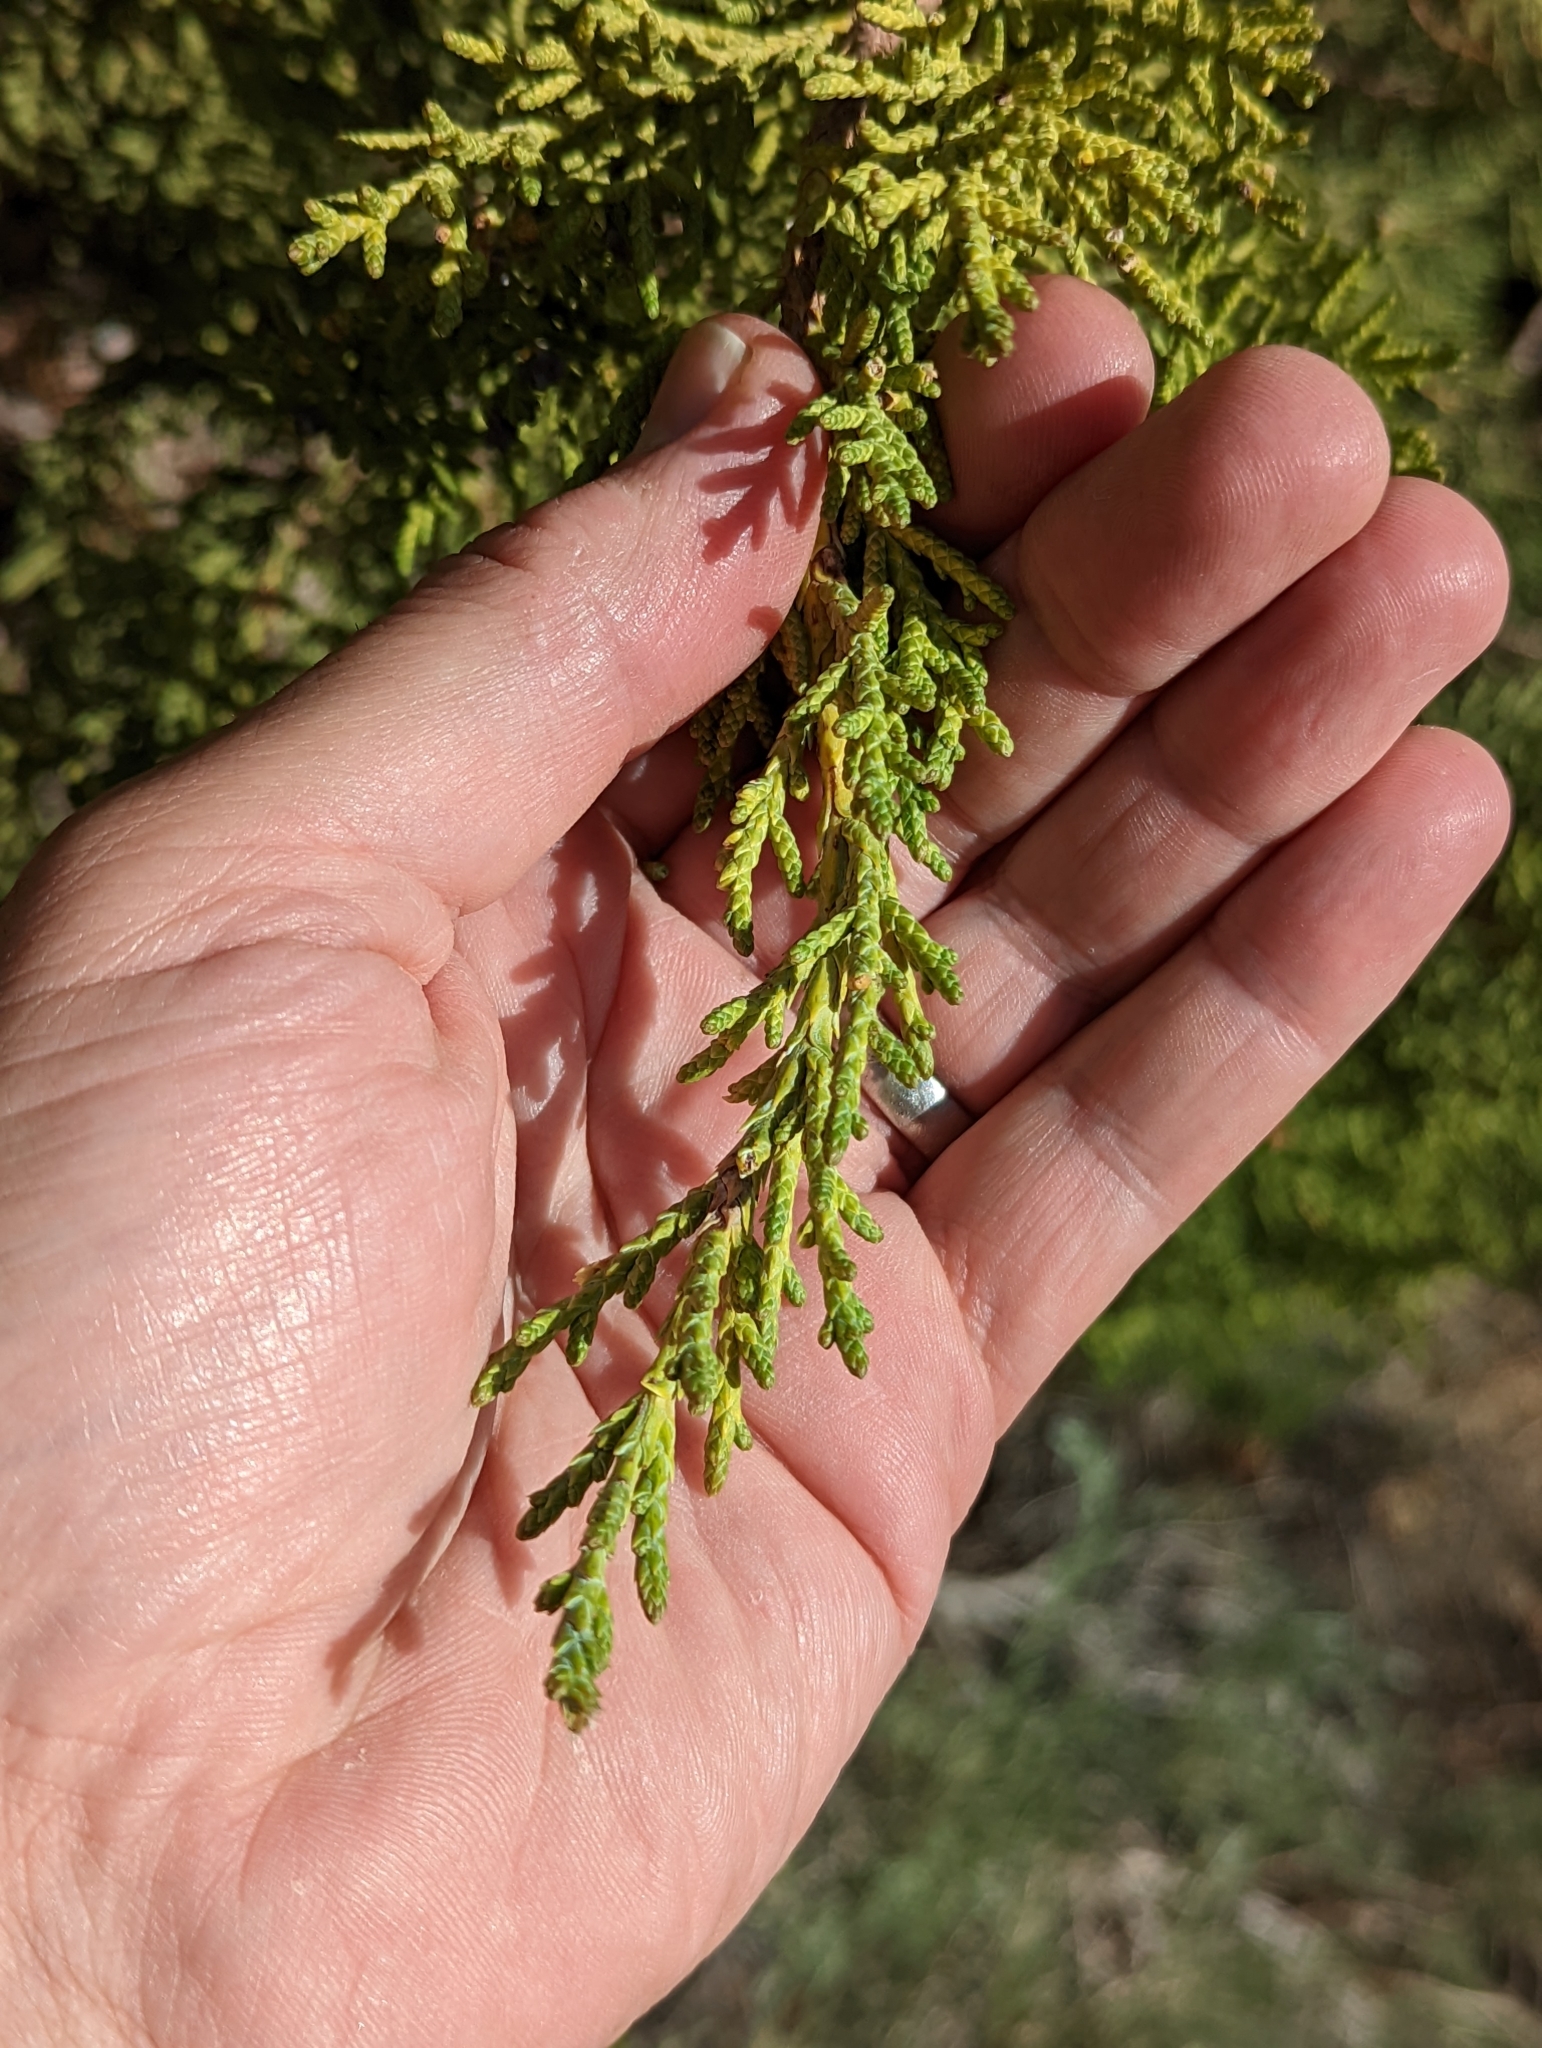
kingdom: Plantae
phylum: Tracheophyta
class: Pinopsida
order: Pinales
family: Cupressaceae
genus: Juniperus
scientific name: Juniperus osteosperma
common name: Utah juniper
